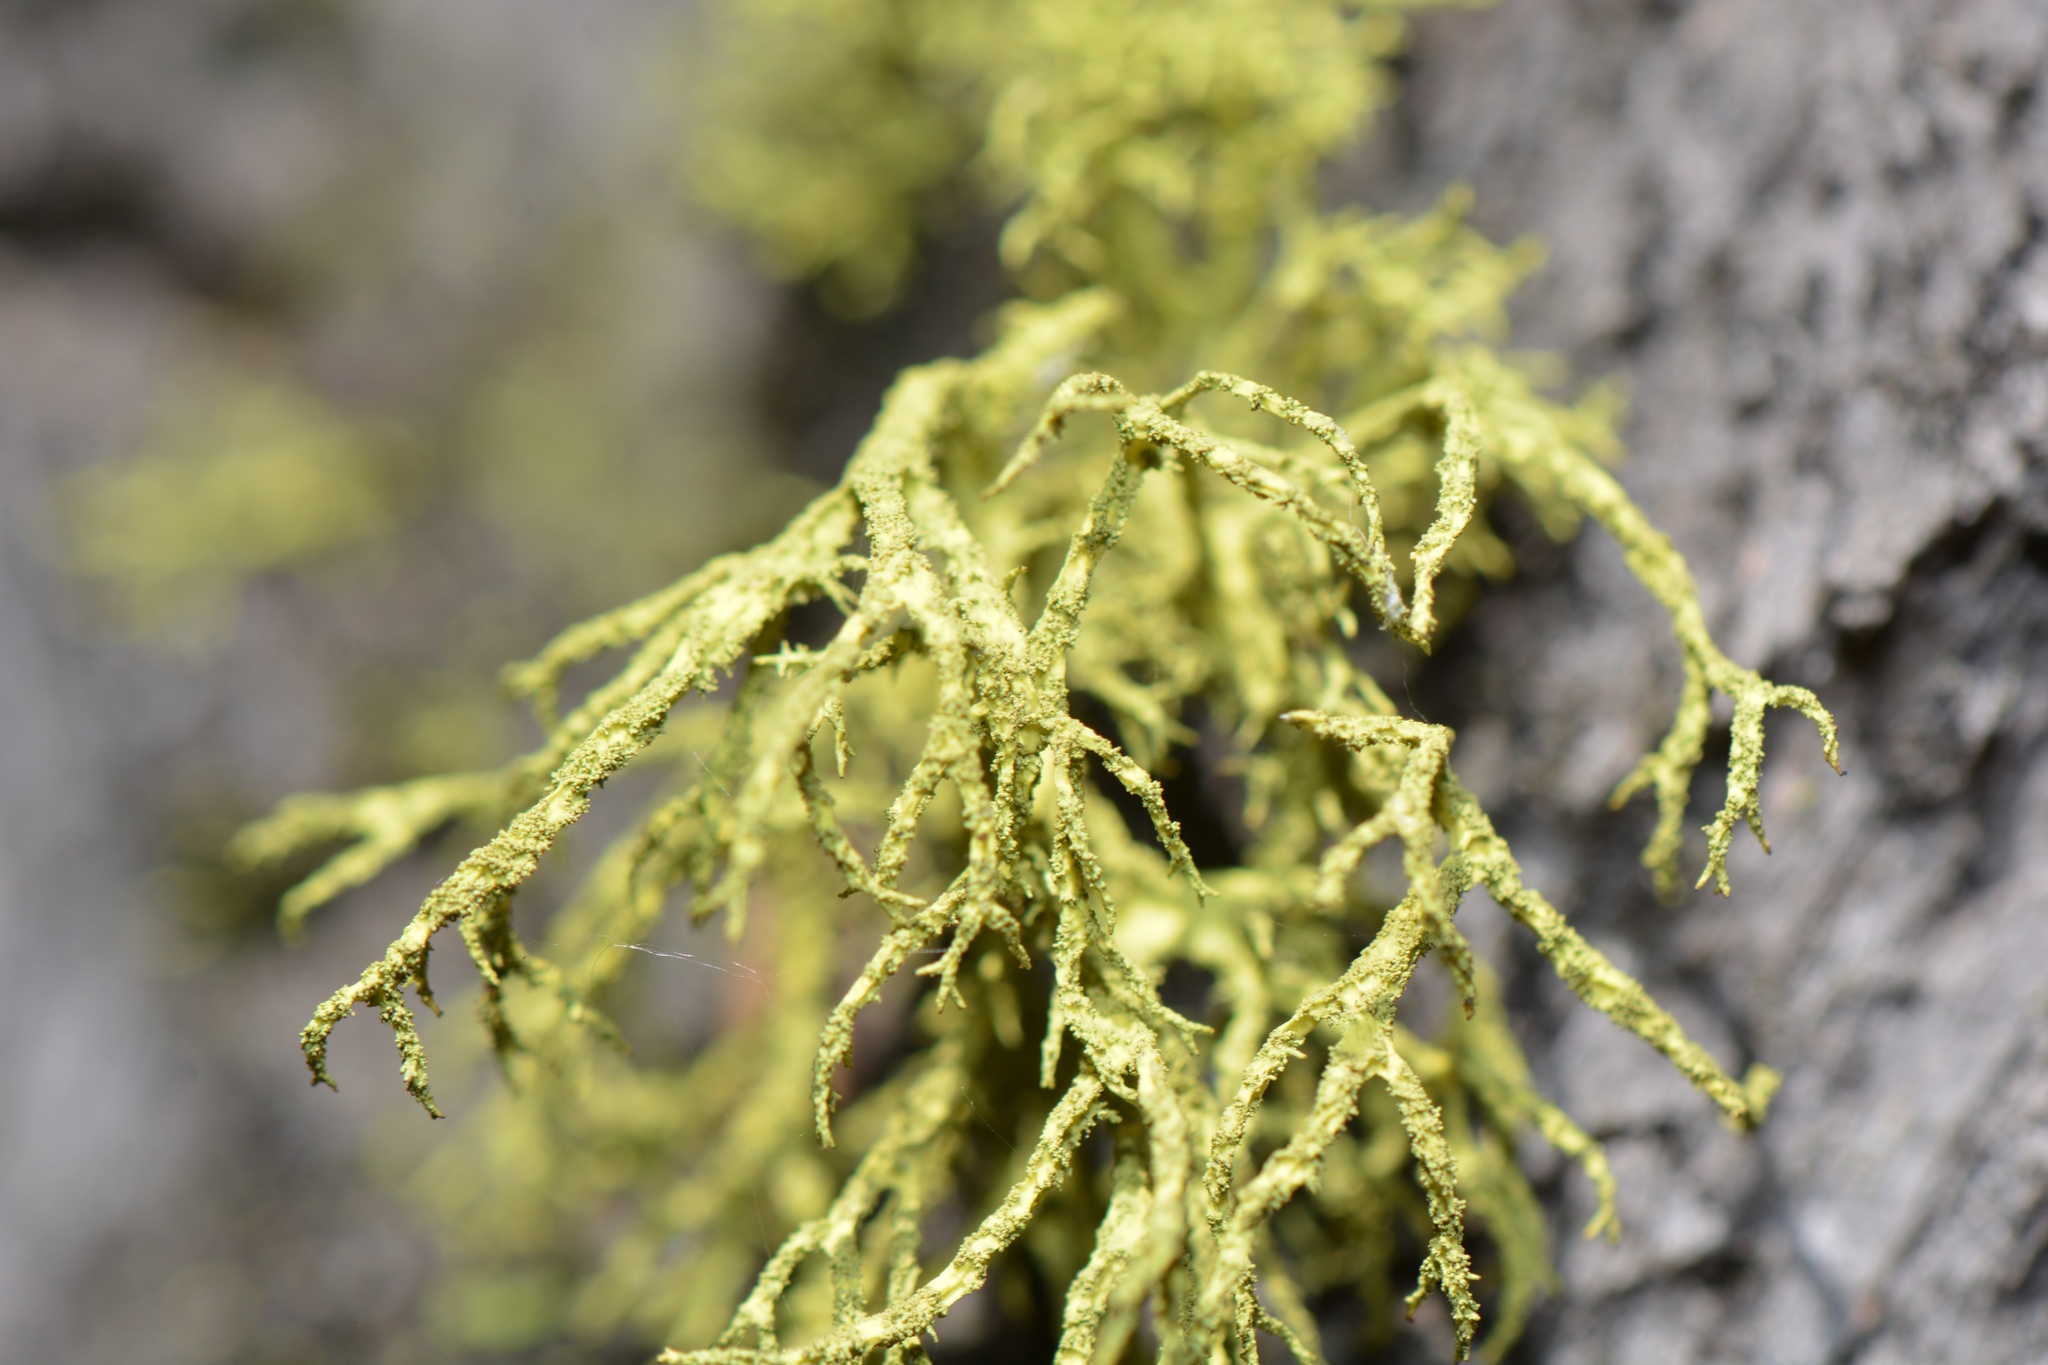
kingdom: Fungi
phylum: Ascomycota
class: Lecanoromycetes
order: Lecanorales
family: Parmeliaceae
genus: Letharia
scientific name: Letharia vulpina
